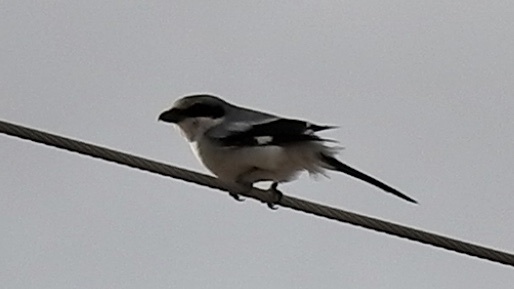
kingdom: Animalia
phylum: Chordata
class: Aves
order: Passeriformes
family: Laniidae
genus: Lanius
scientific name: Lanius ludovicianus
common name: Loggerhead shrike
